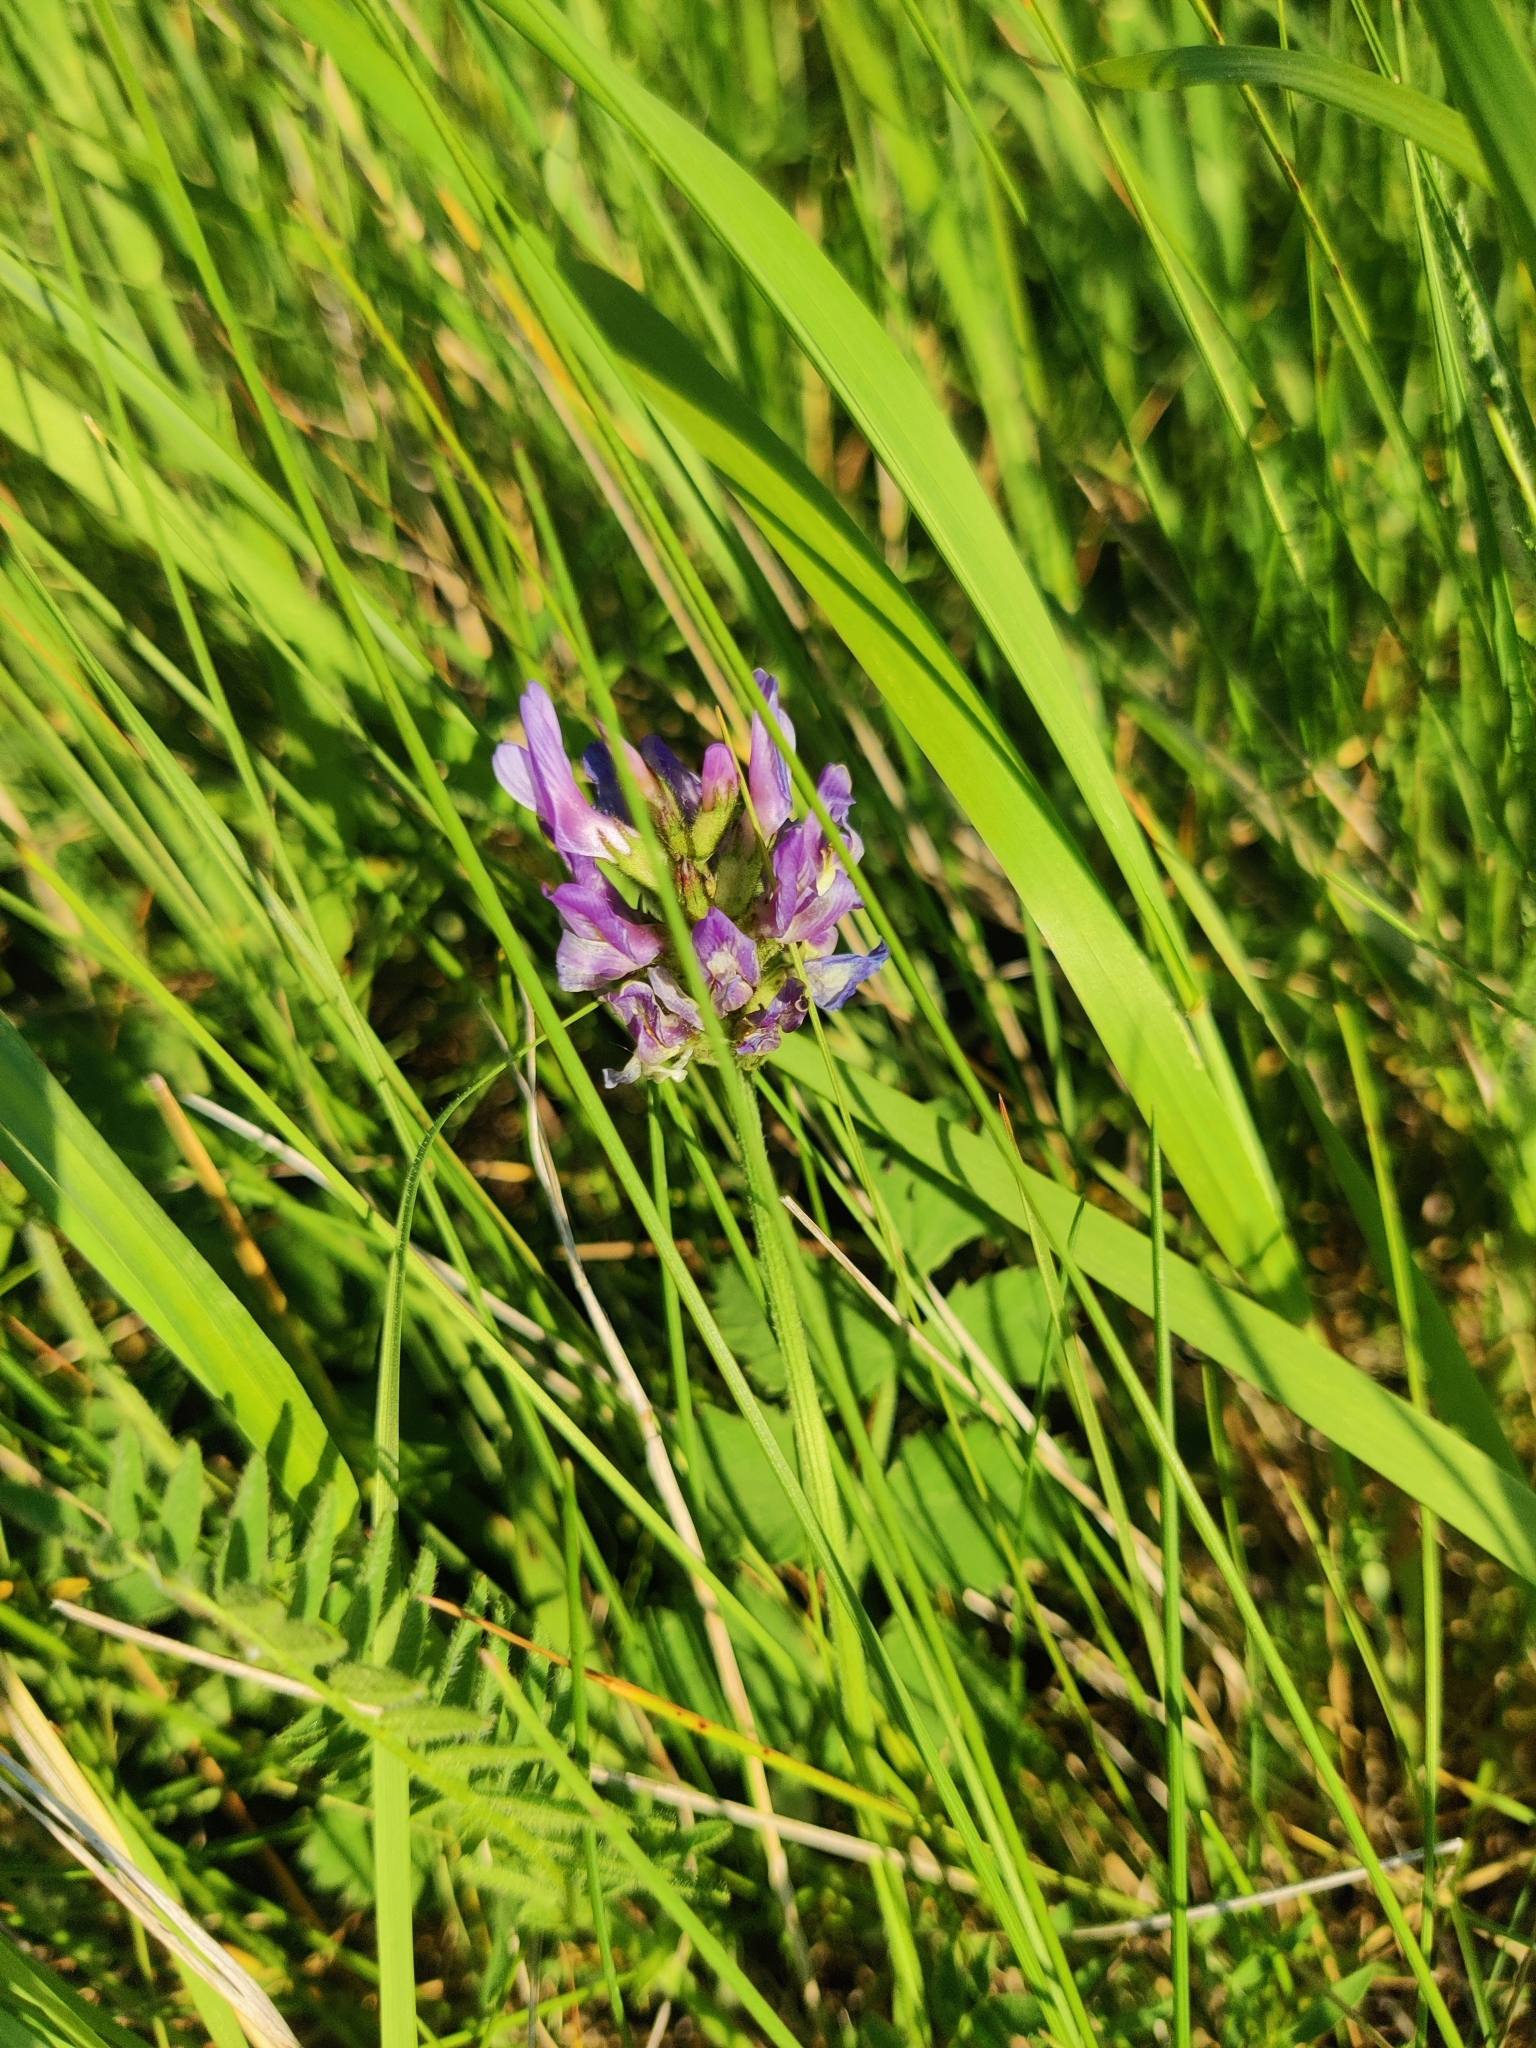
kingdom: Plantae
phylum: Tracheophyta
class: Magnoliopsida
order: Fabales
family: Fabaceae
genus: Astragalus
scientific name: Astragalus danicus
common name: Purple milk-vetch
